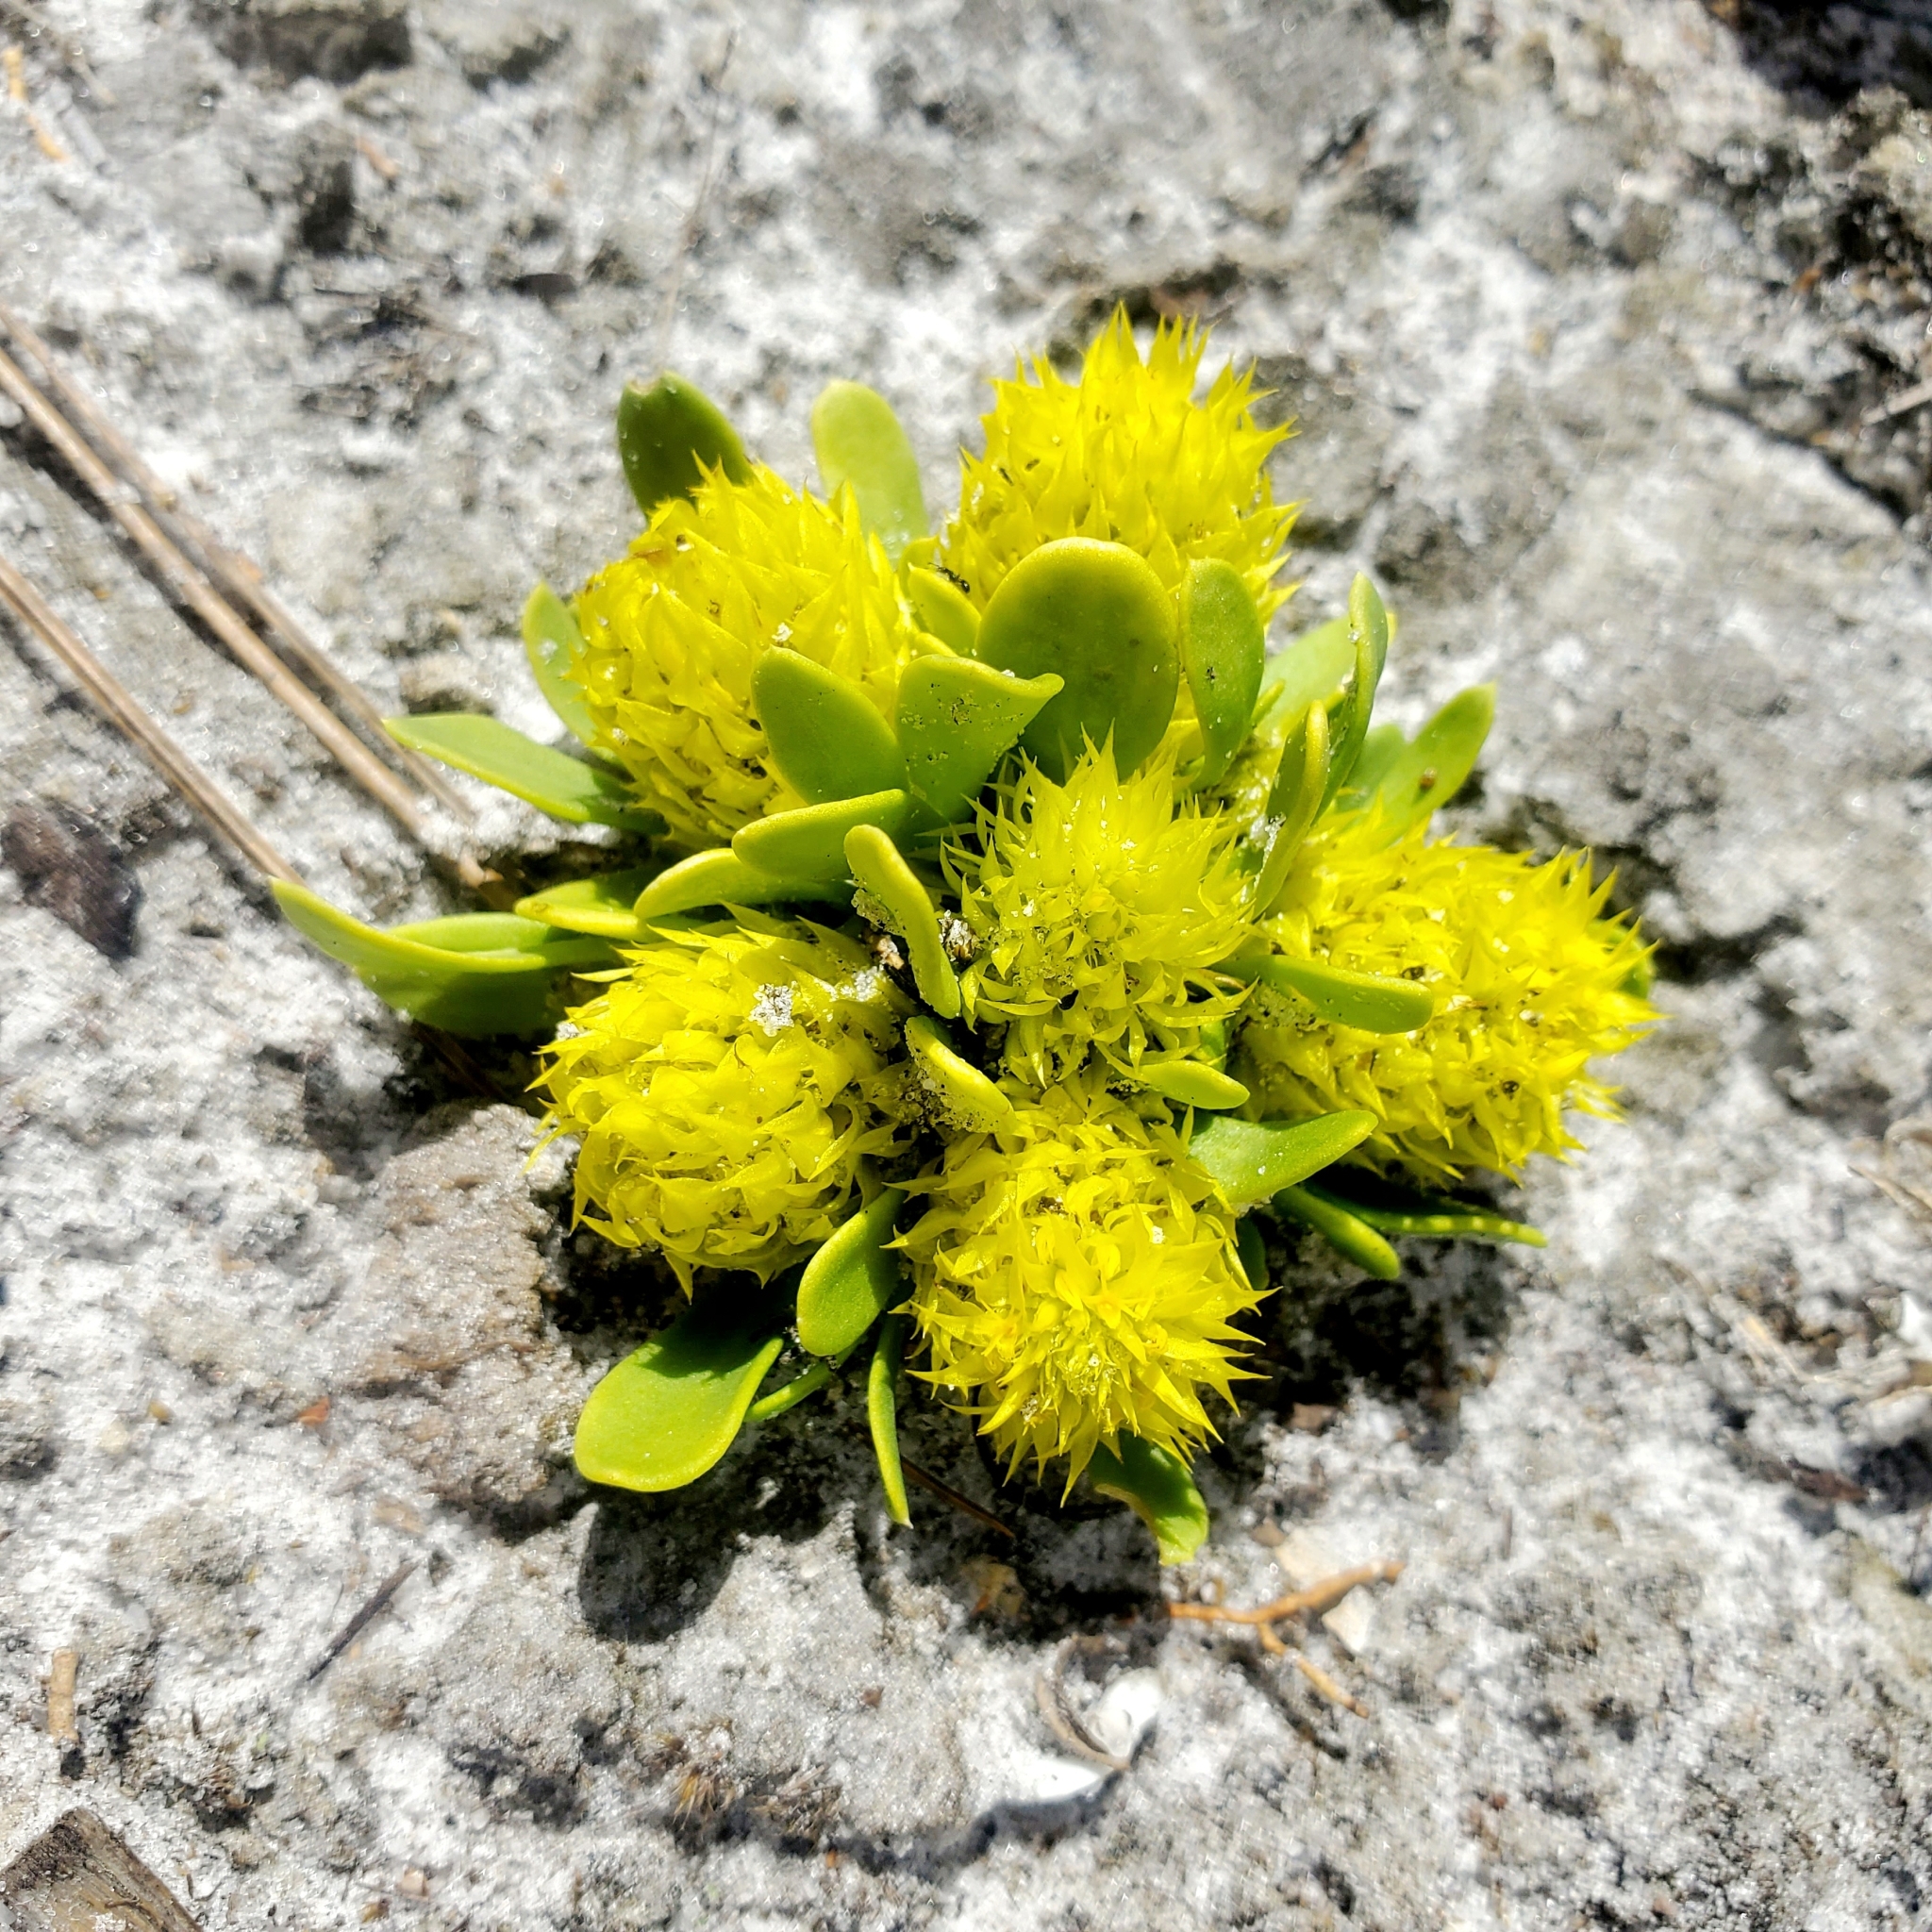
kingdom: Plantae
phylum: Tracheophyta
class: Magnoliopsida
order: Fabales
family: Polygalaceae
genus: Polygala
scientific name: Polygala nana
